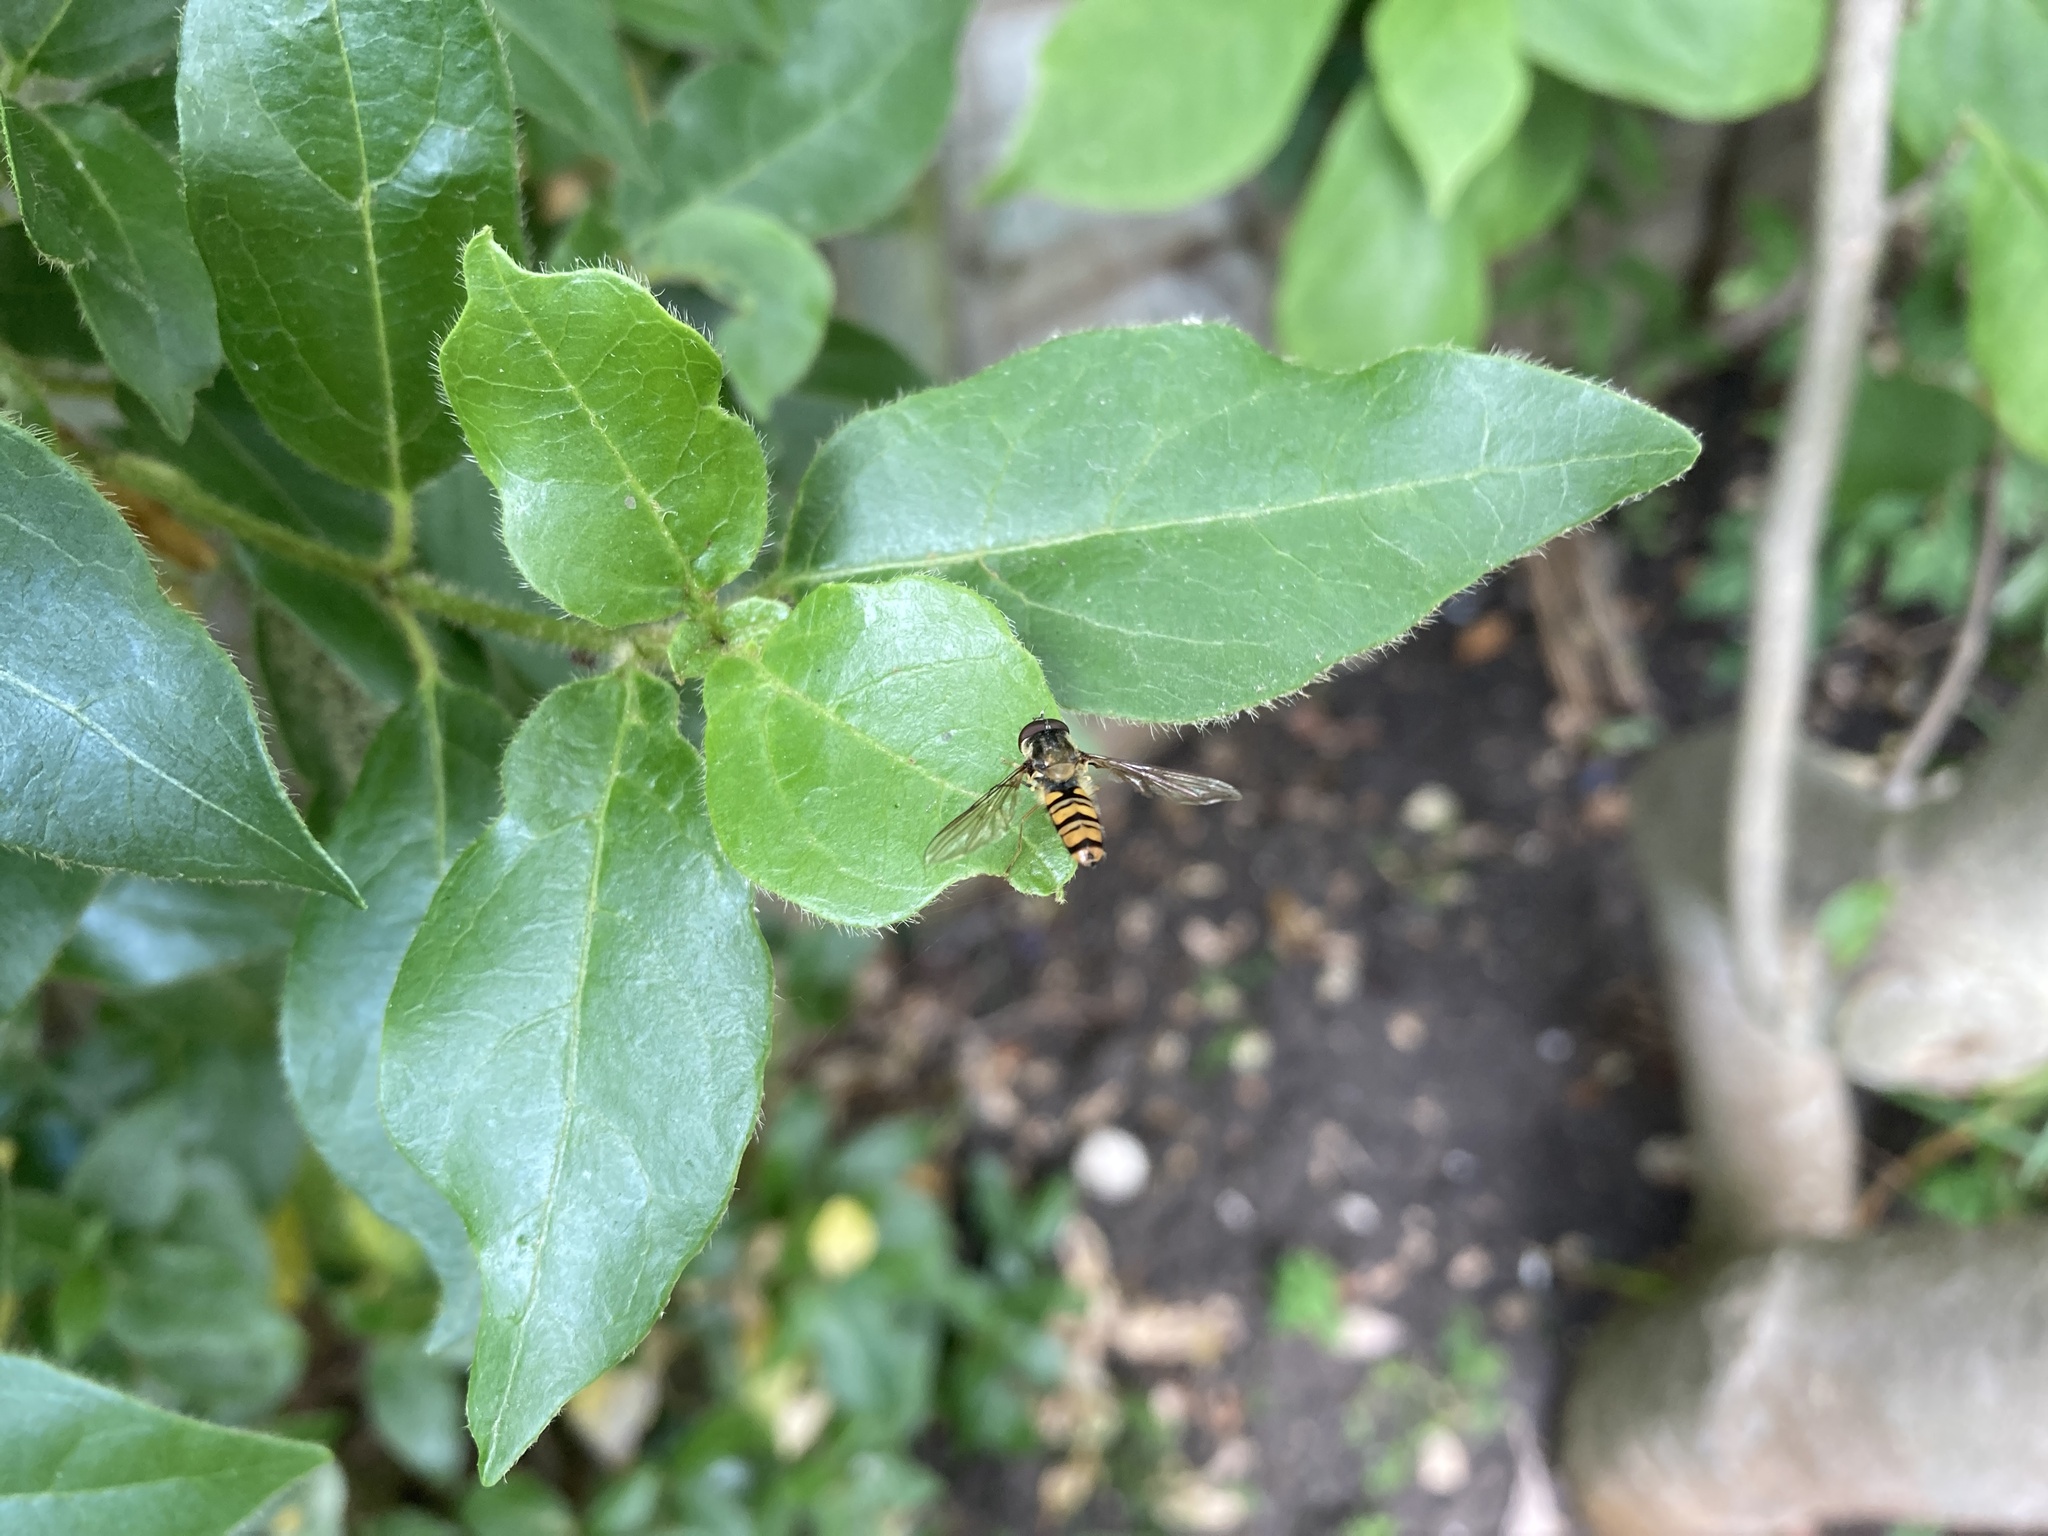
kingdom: Animalia
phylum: Arthropoda
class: Insecta
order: Diptera
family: Syrphidae
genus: Episyrphus
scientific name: Episyrphus balteatus
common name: Marmalade hoverfly
